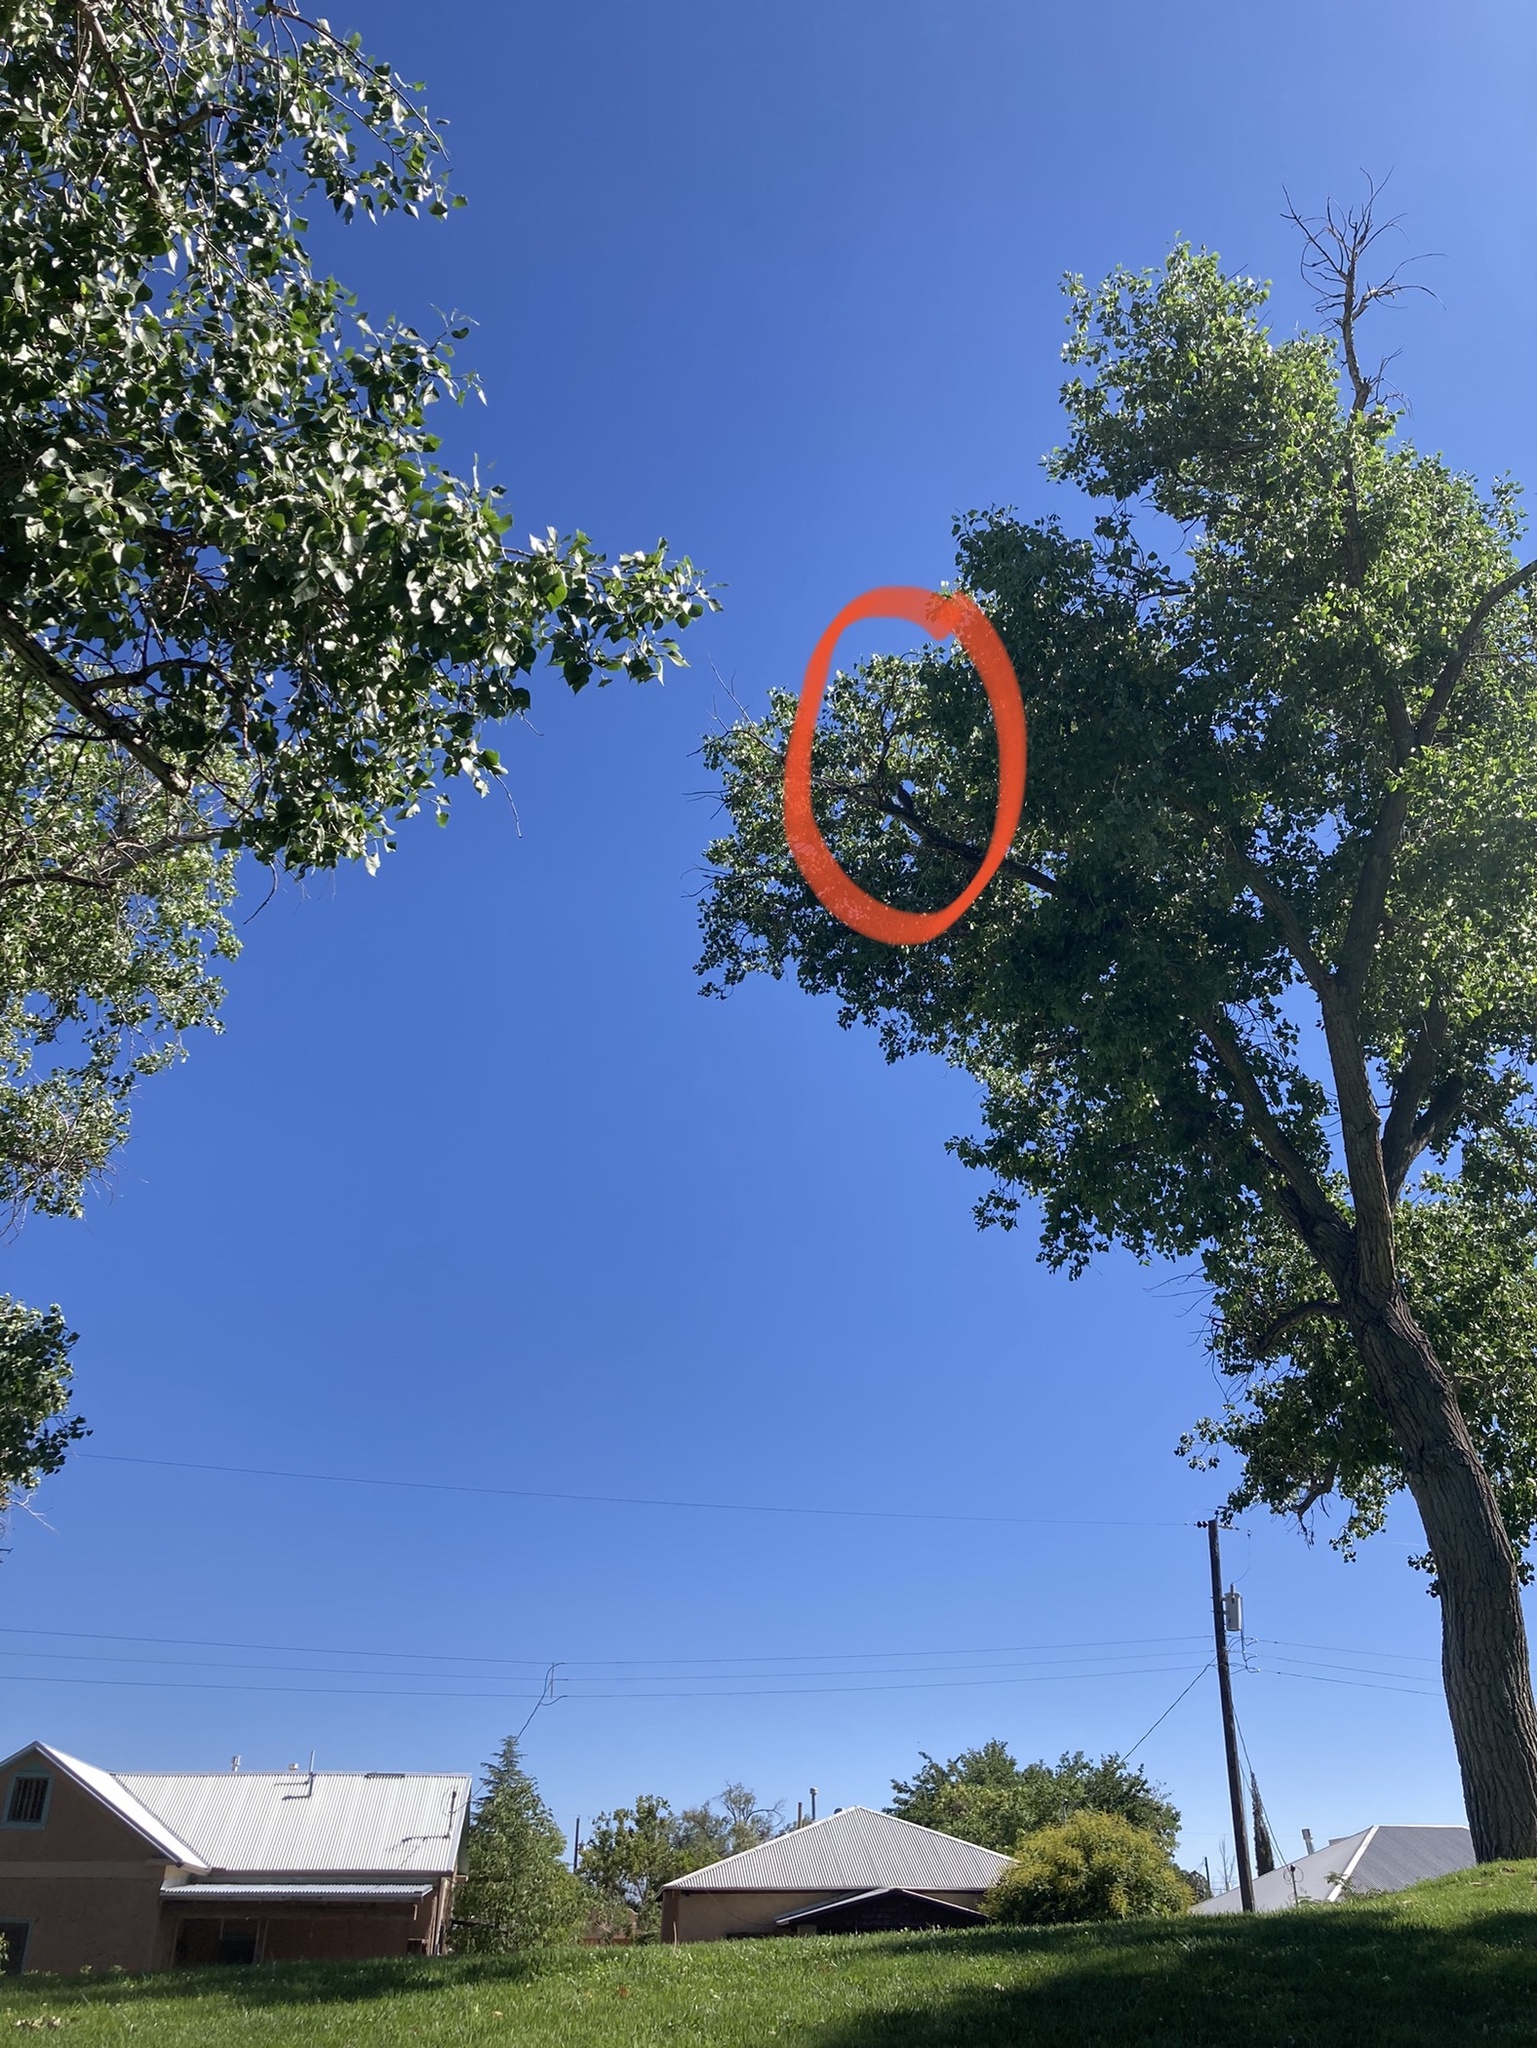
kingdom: Animalia
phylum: Chordata
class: Aves
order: Accipitriformes
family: Accipitridae
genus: Accipiter
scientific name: Accipiter cooperii
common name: Cooper's hawk
